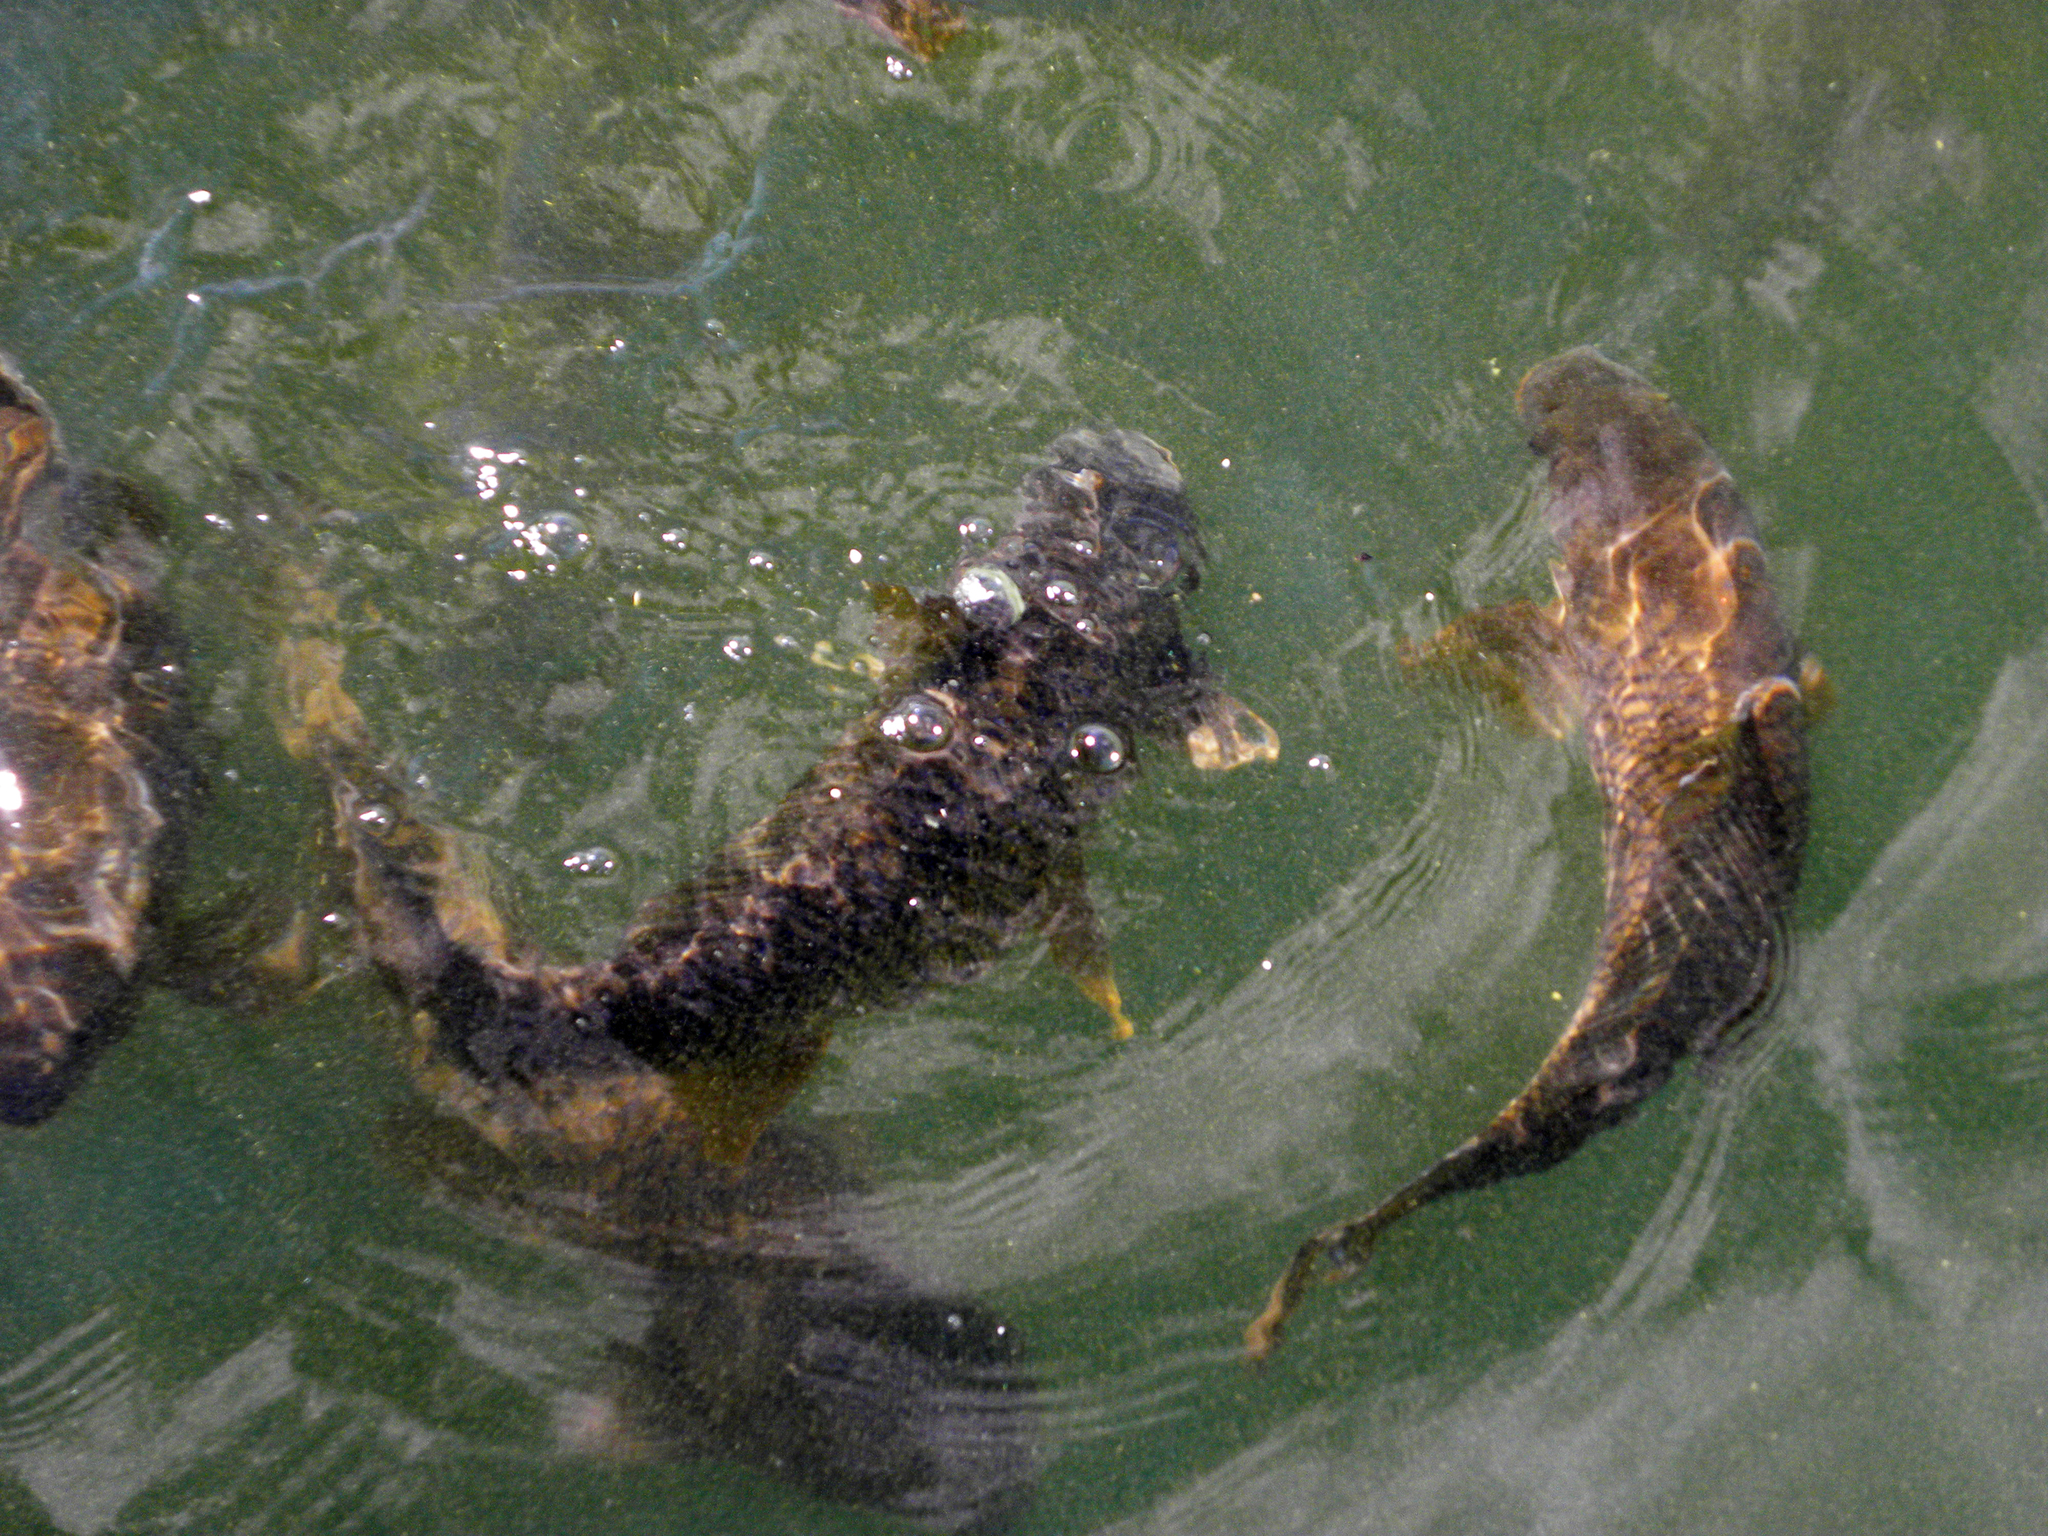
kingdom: Animalia
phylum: Chordata
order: Cypriniformes
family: Cyprinidae
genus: Cyprinus
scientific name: Cyprinus carpio
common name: Common carp
